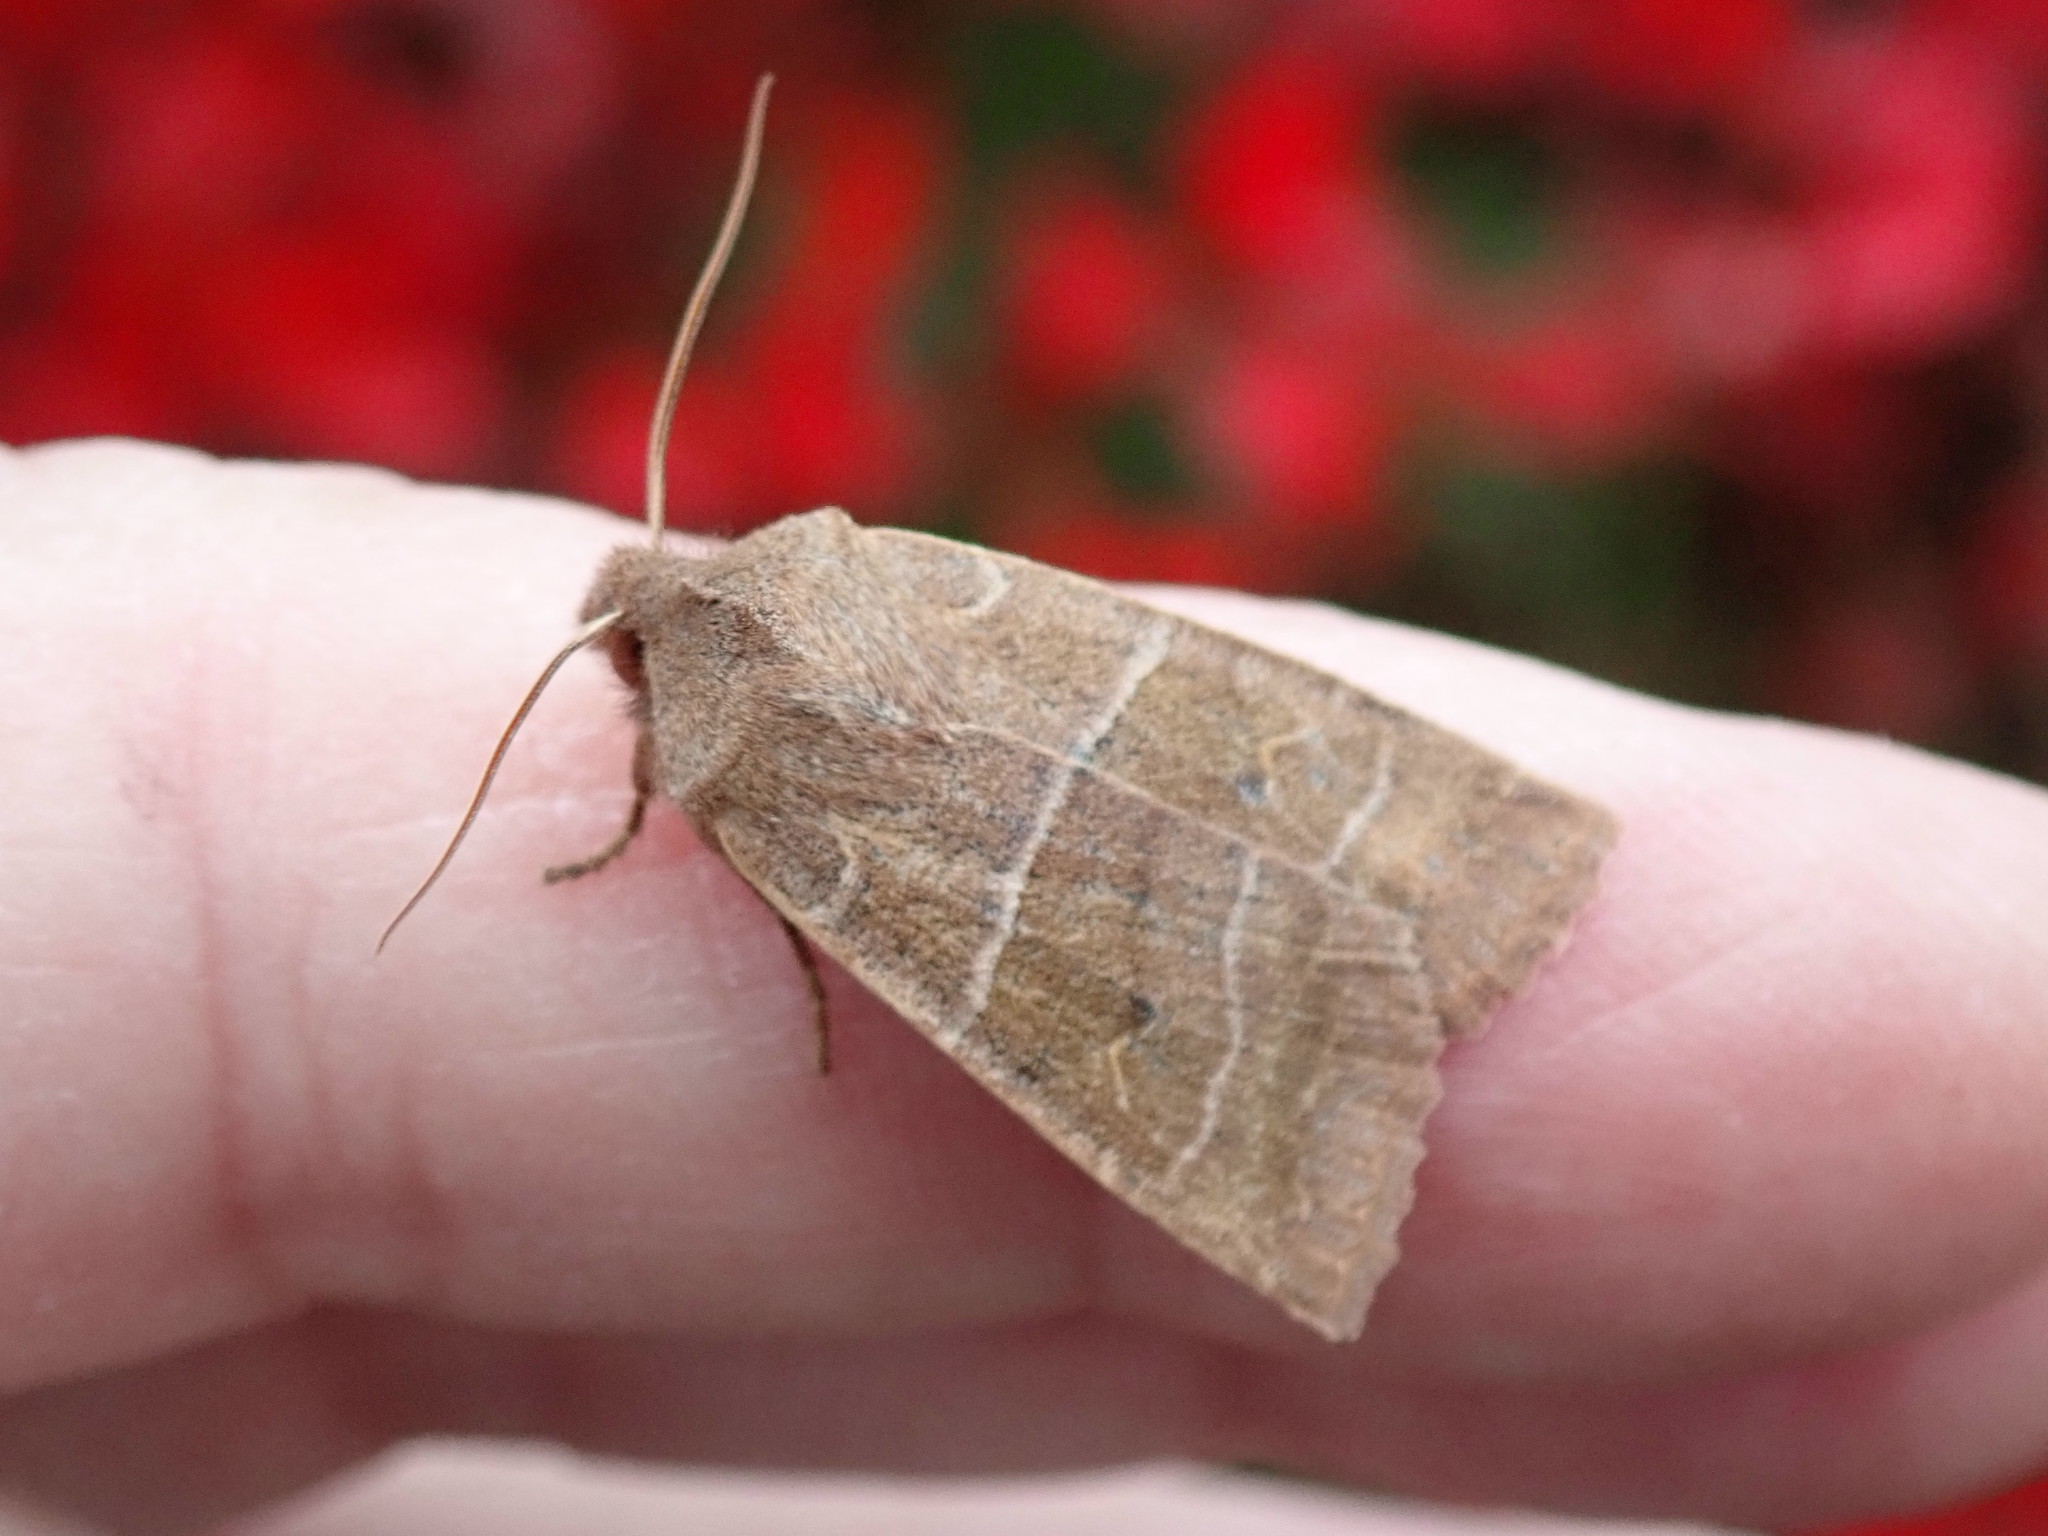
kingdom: Animalia
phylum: Arthropoda
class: Insecta
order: Lepidoptera
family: Noctuidae
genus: Eupsilia
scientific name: Eupsilia morrisoni
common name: Morrison's sallow
